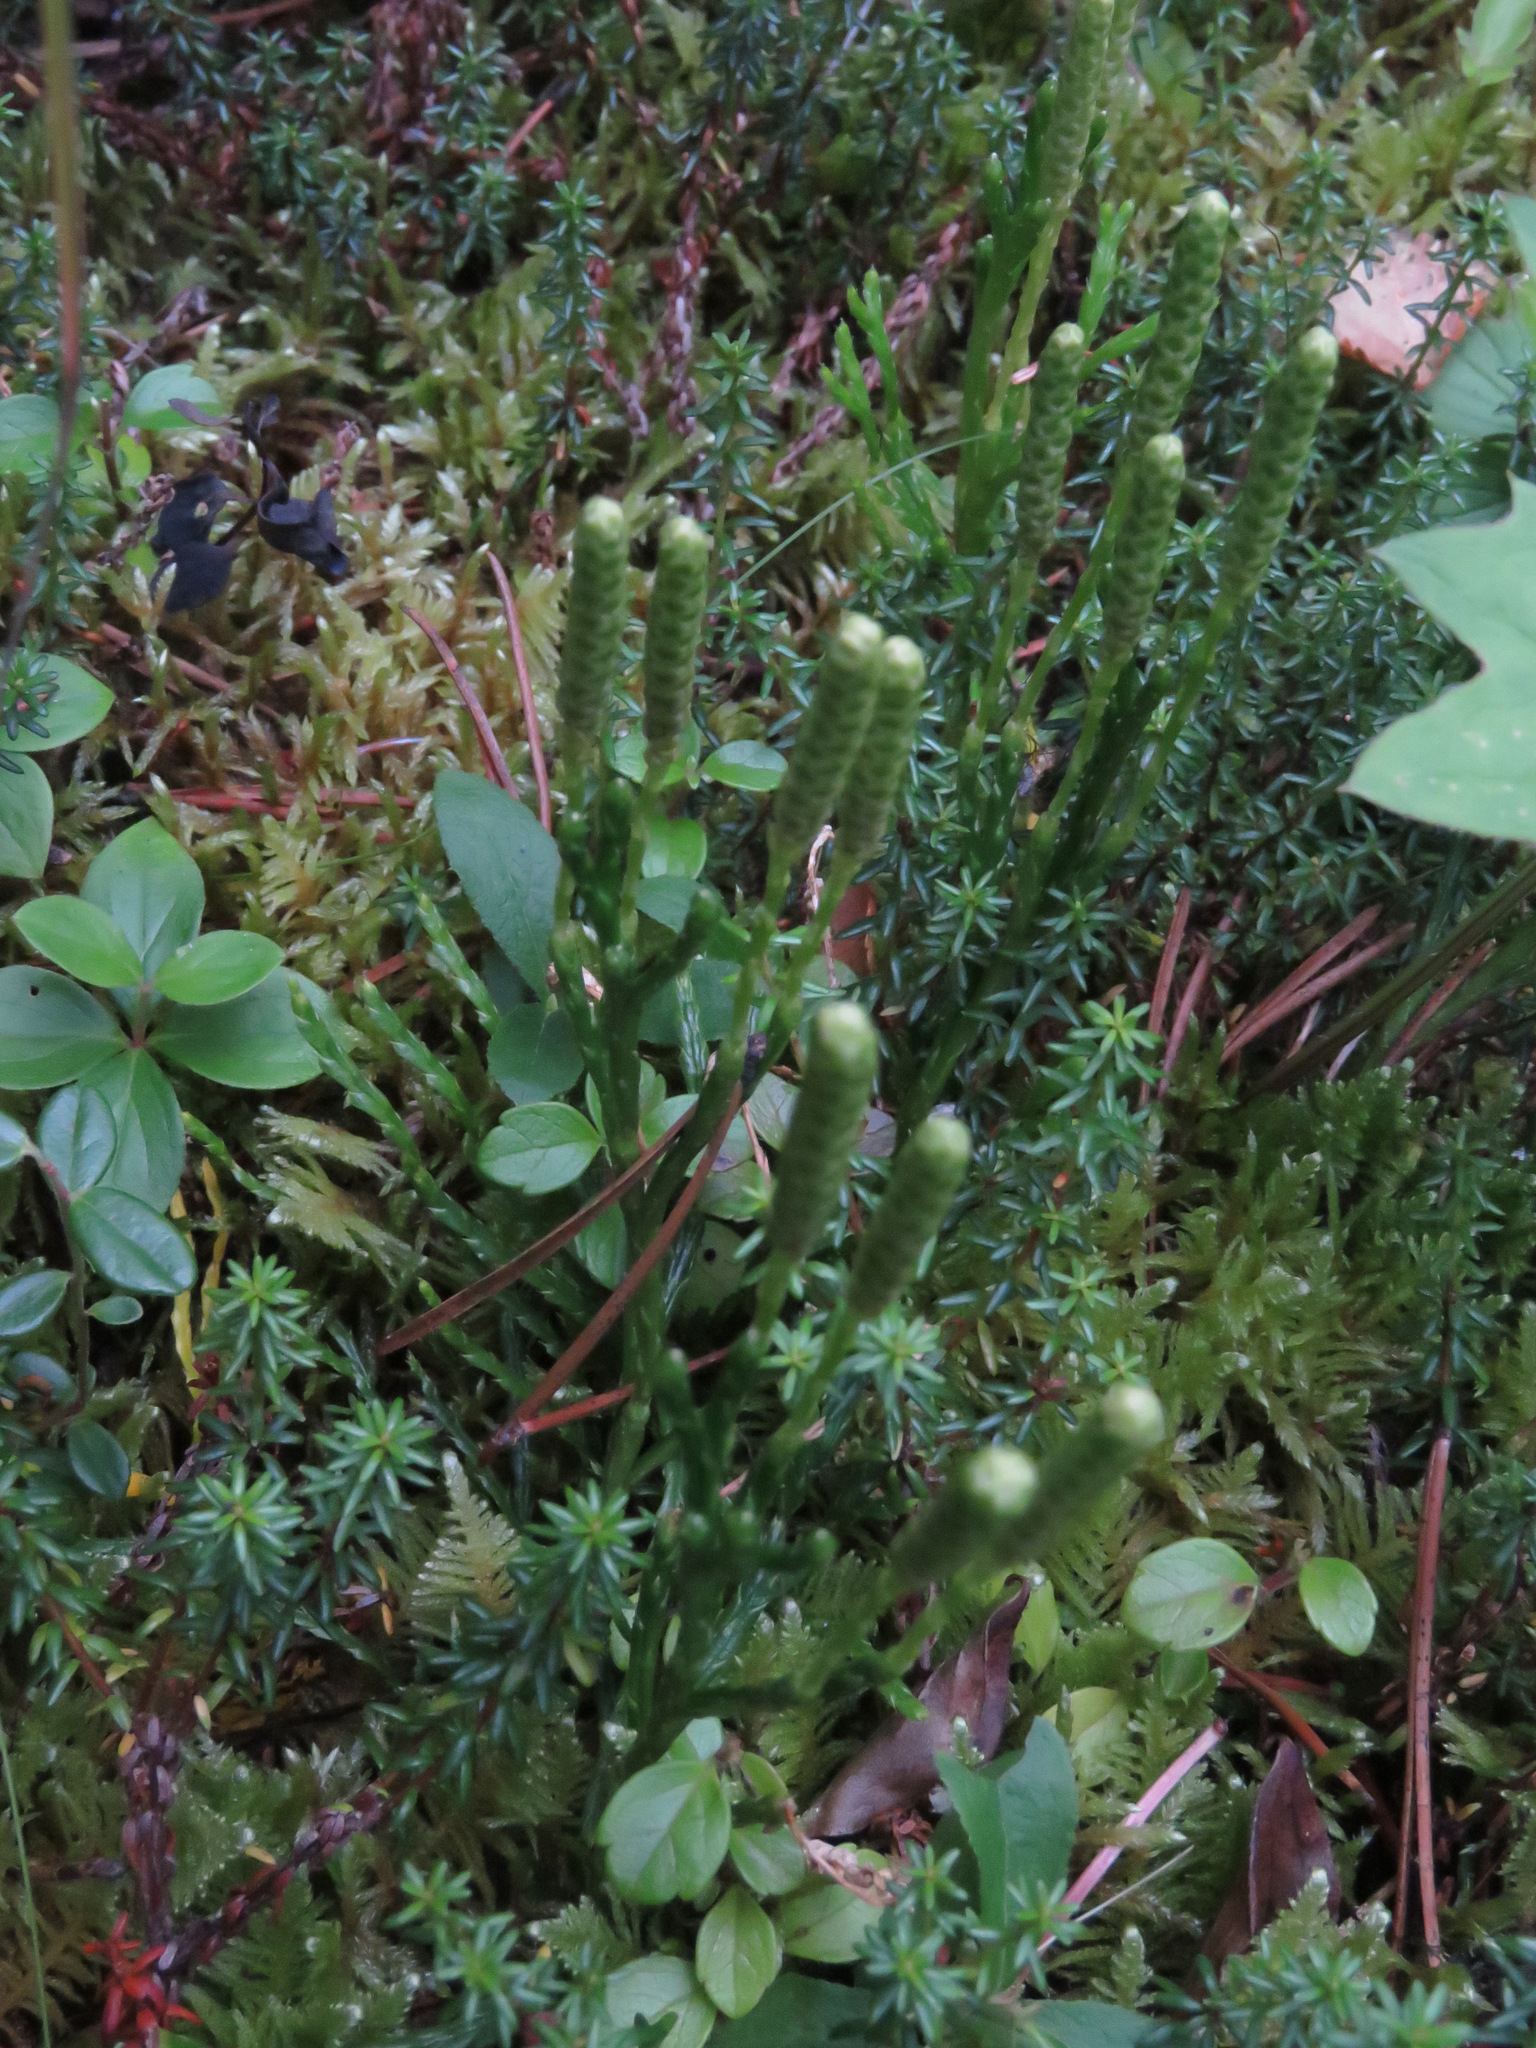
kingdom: Plantae
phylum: Tracheophyta
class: Lycopodiopsida
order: Lycopodiales
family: Lycopodiaceae
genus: Diphasiastrum
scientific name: Diphasiastrum complanatum
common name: Northern running-pine
